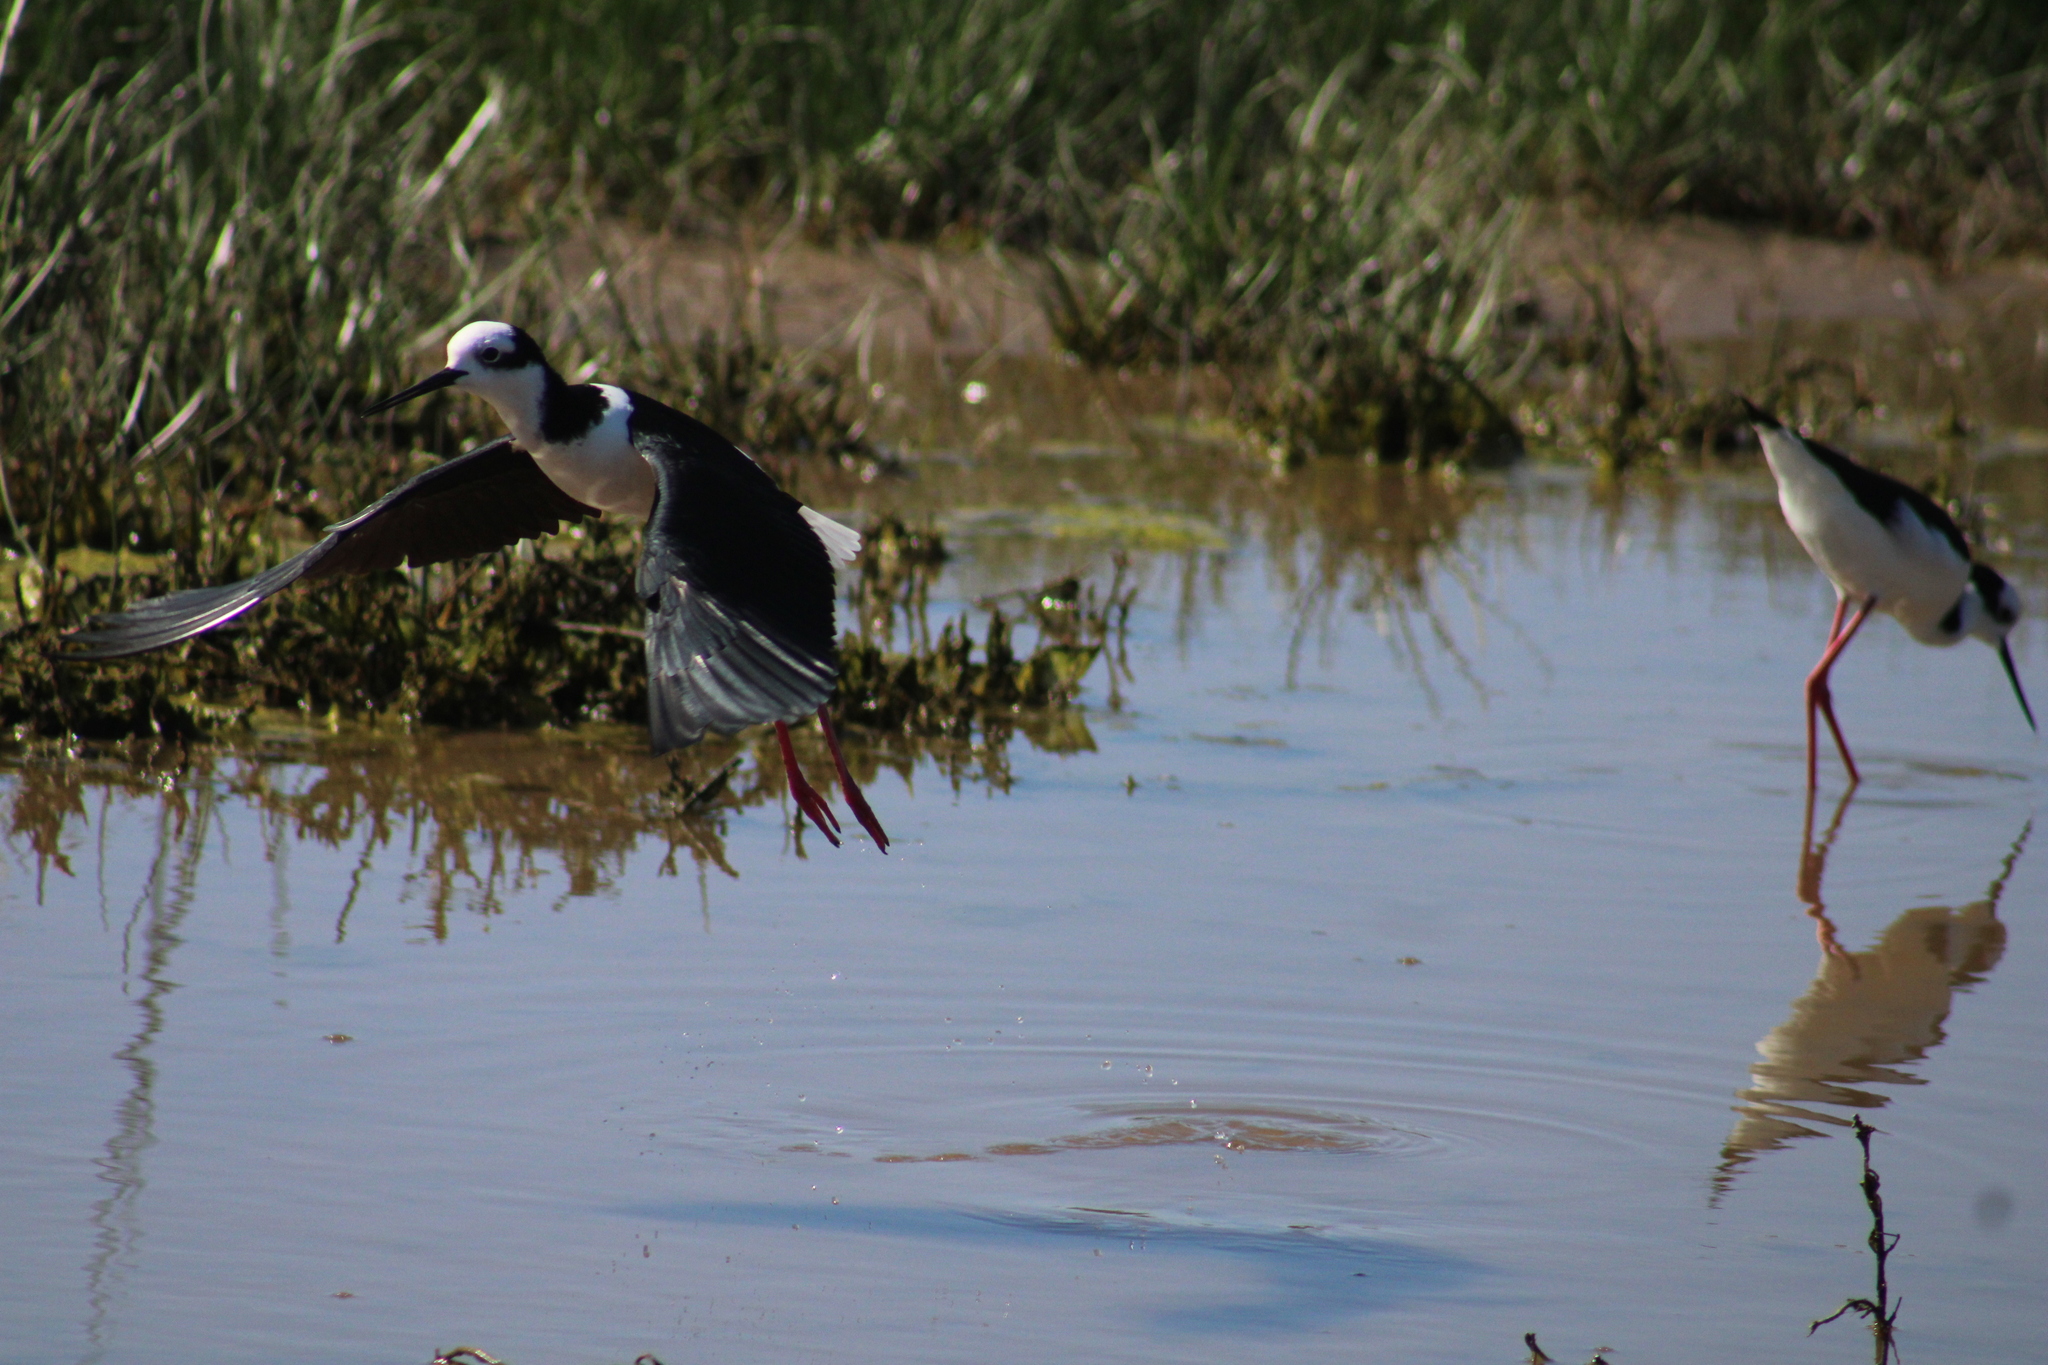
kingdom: Animalia
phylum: Chordata
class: Aves
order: Charadriiformes
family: Recurvirostridae
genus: Himantopus
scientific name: Himantopus mexicanus
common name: Black-necked stilt
